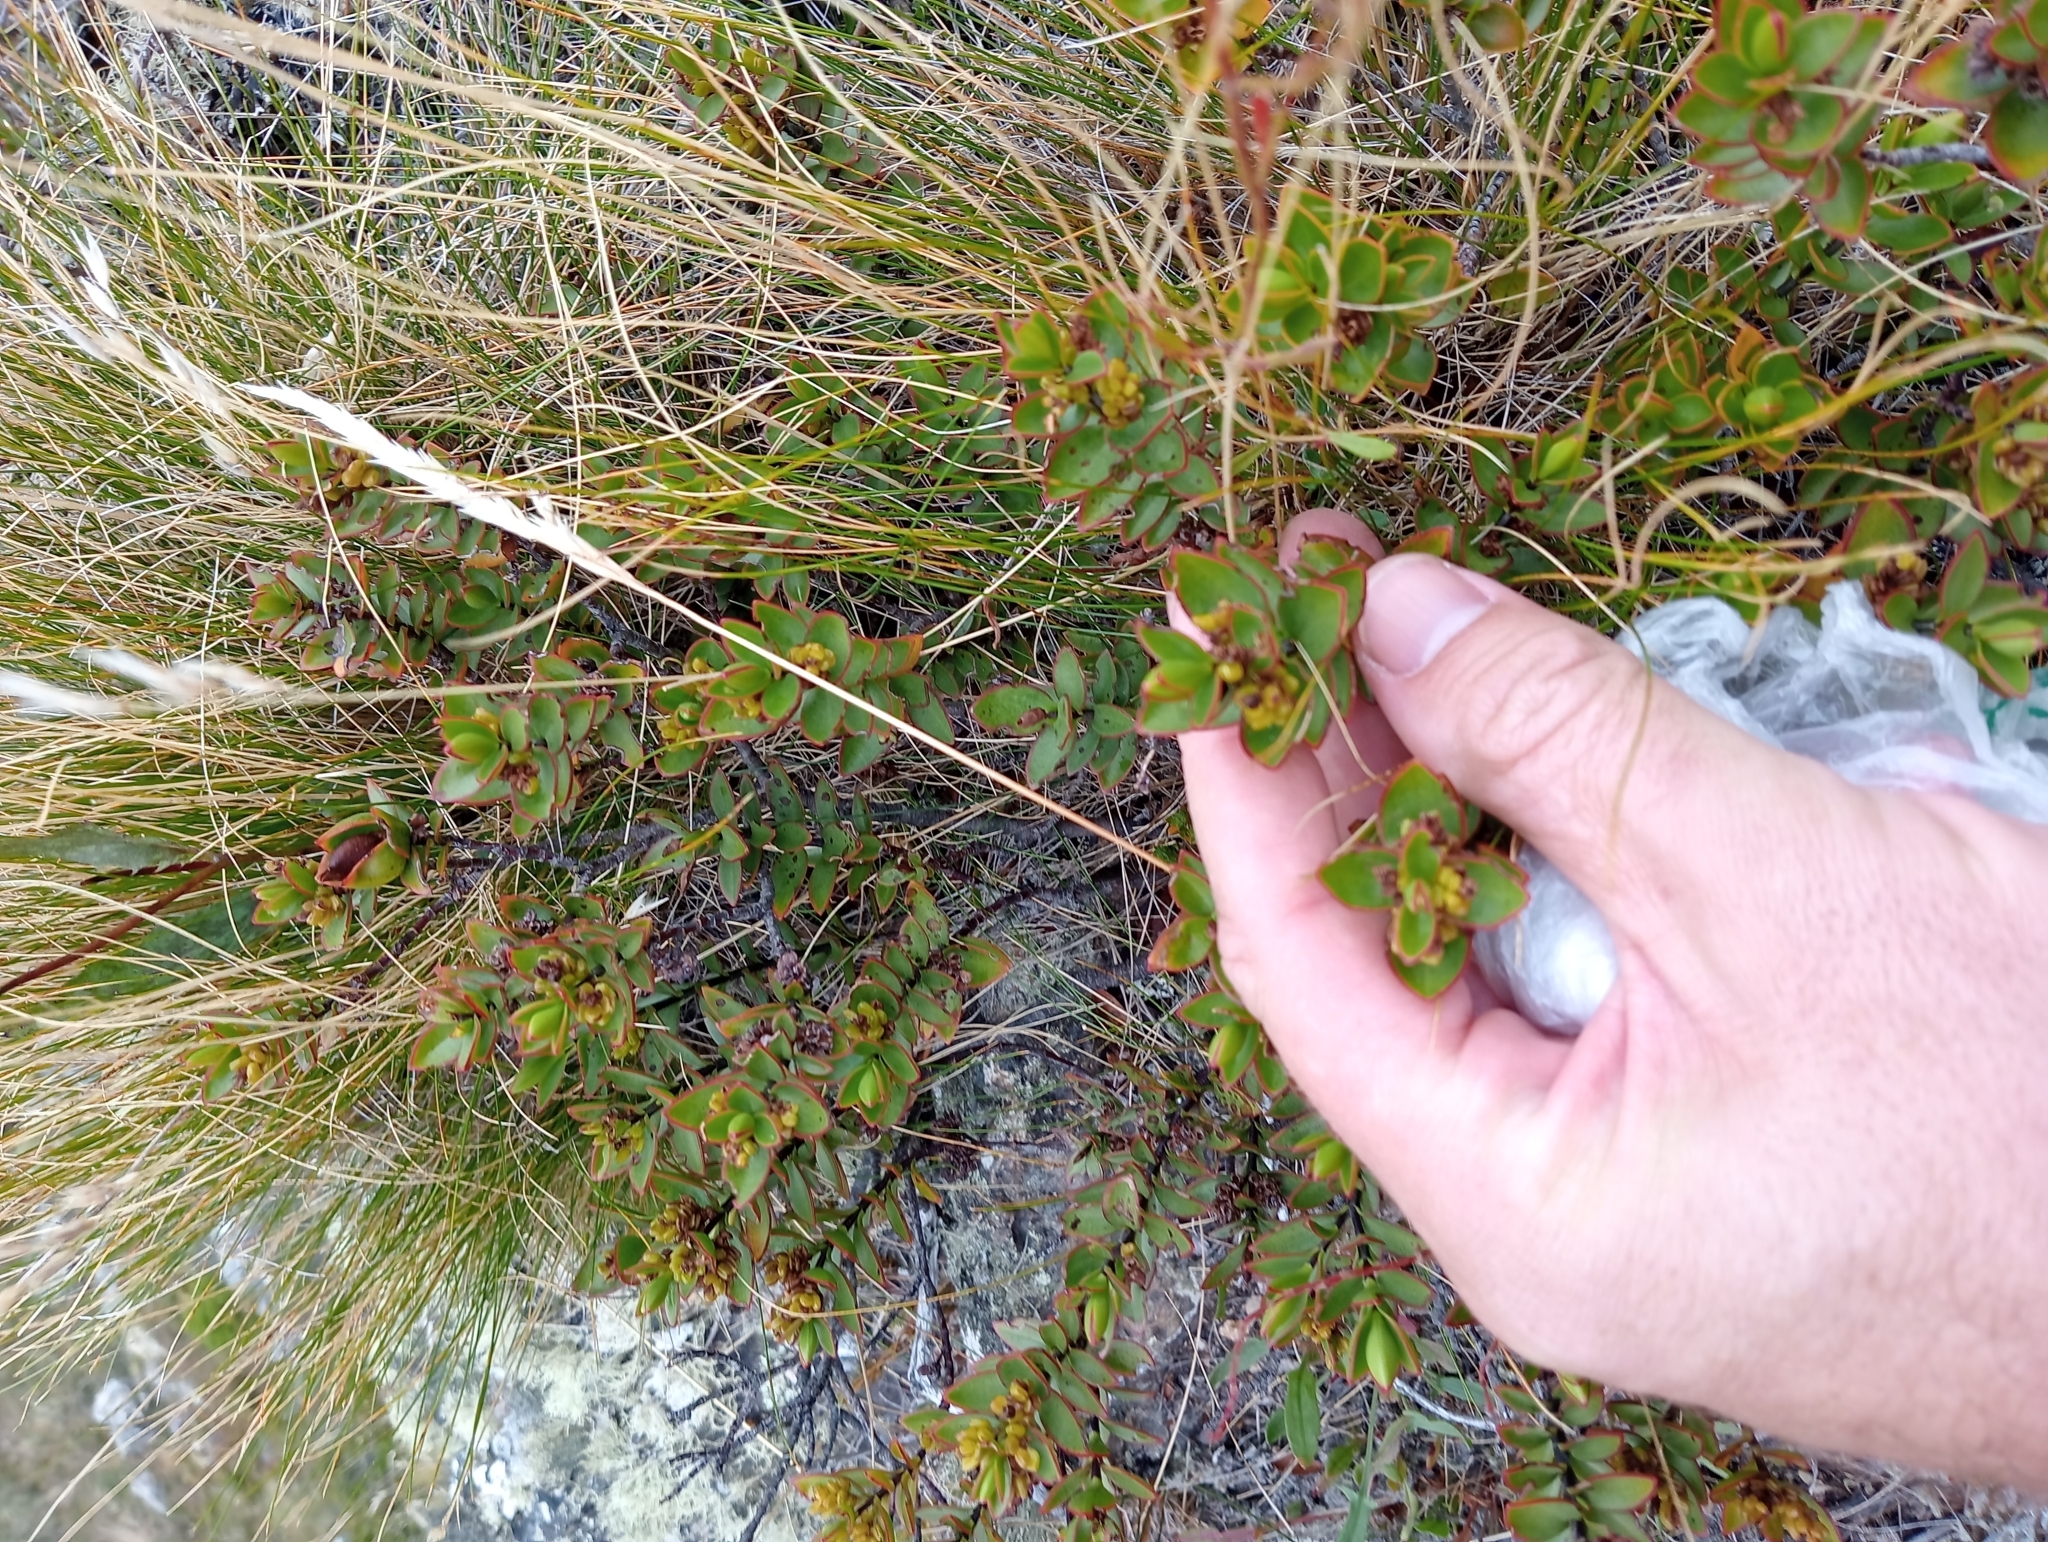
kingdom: Plantae
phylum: Tracheophyta
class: Magnoliopsida
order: Lamiales
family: Plantaginaceae
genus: Veronica
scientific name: Veronica decumbens
